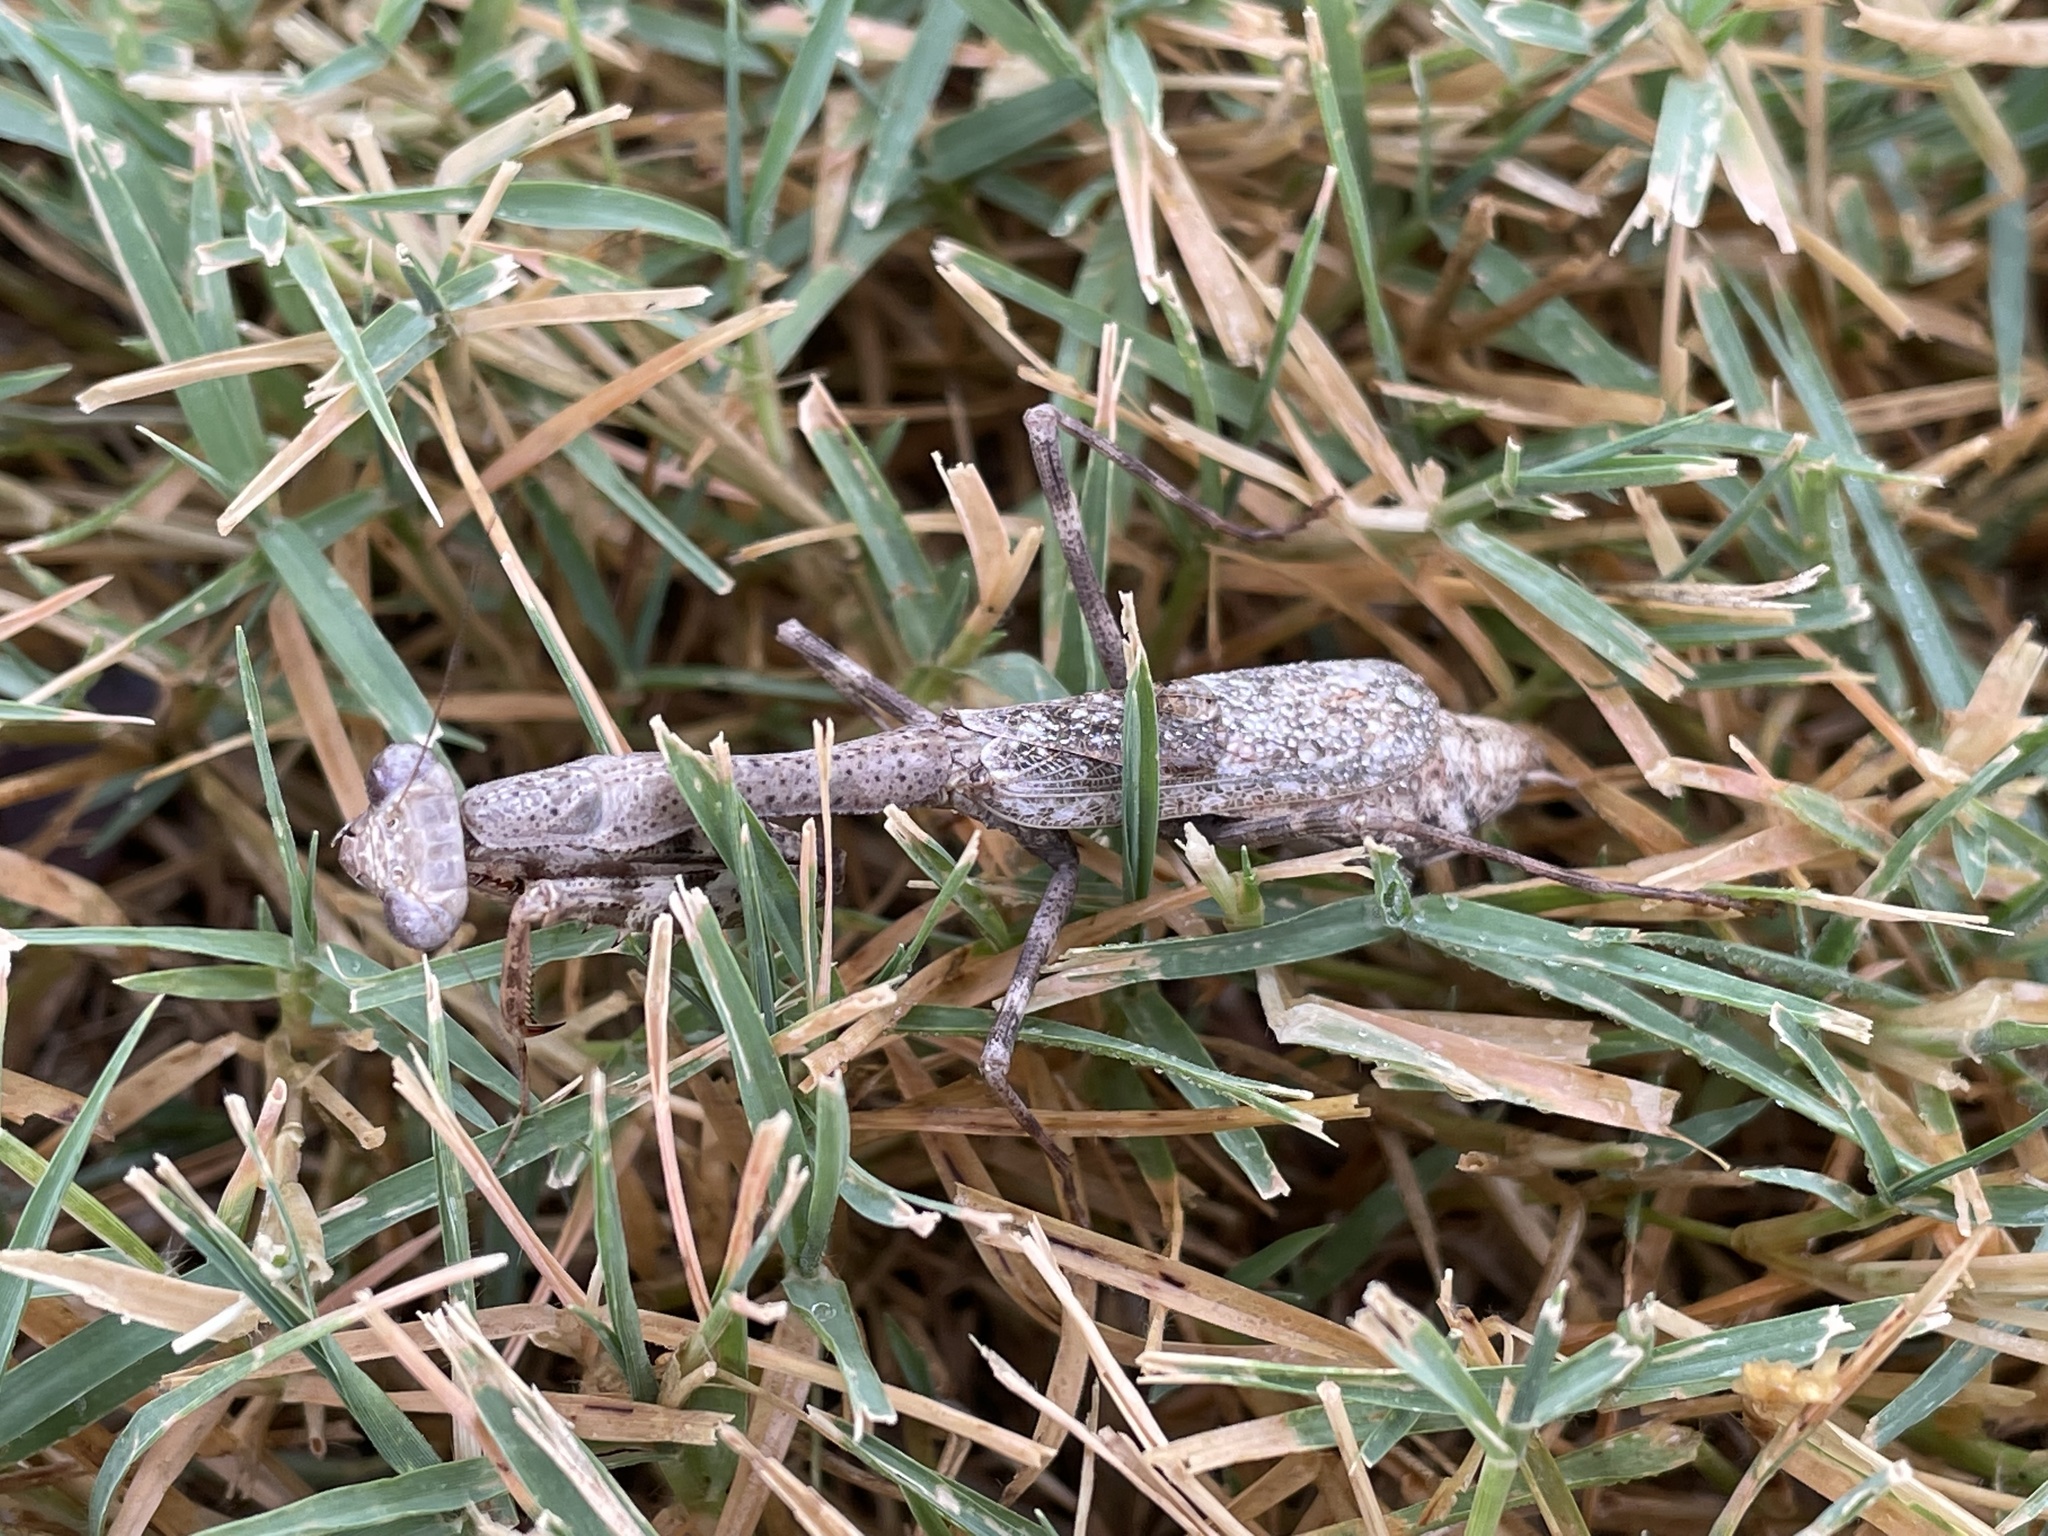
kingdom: Animalia
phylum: Arthropoda
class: Insecta
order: Mantodea
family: Mantidae
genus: Stagmomantis
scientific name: Stagmomantis carolina
